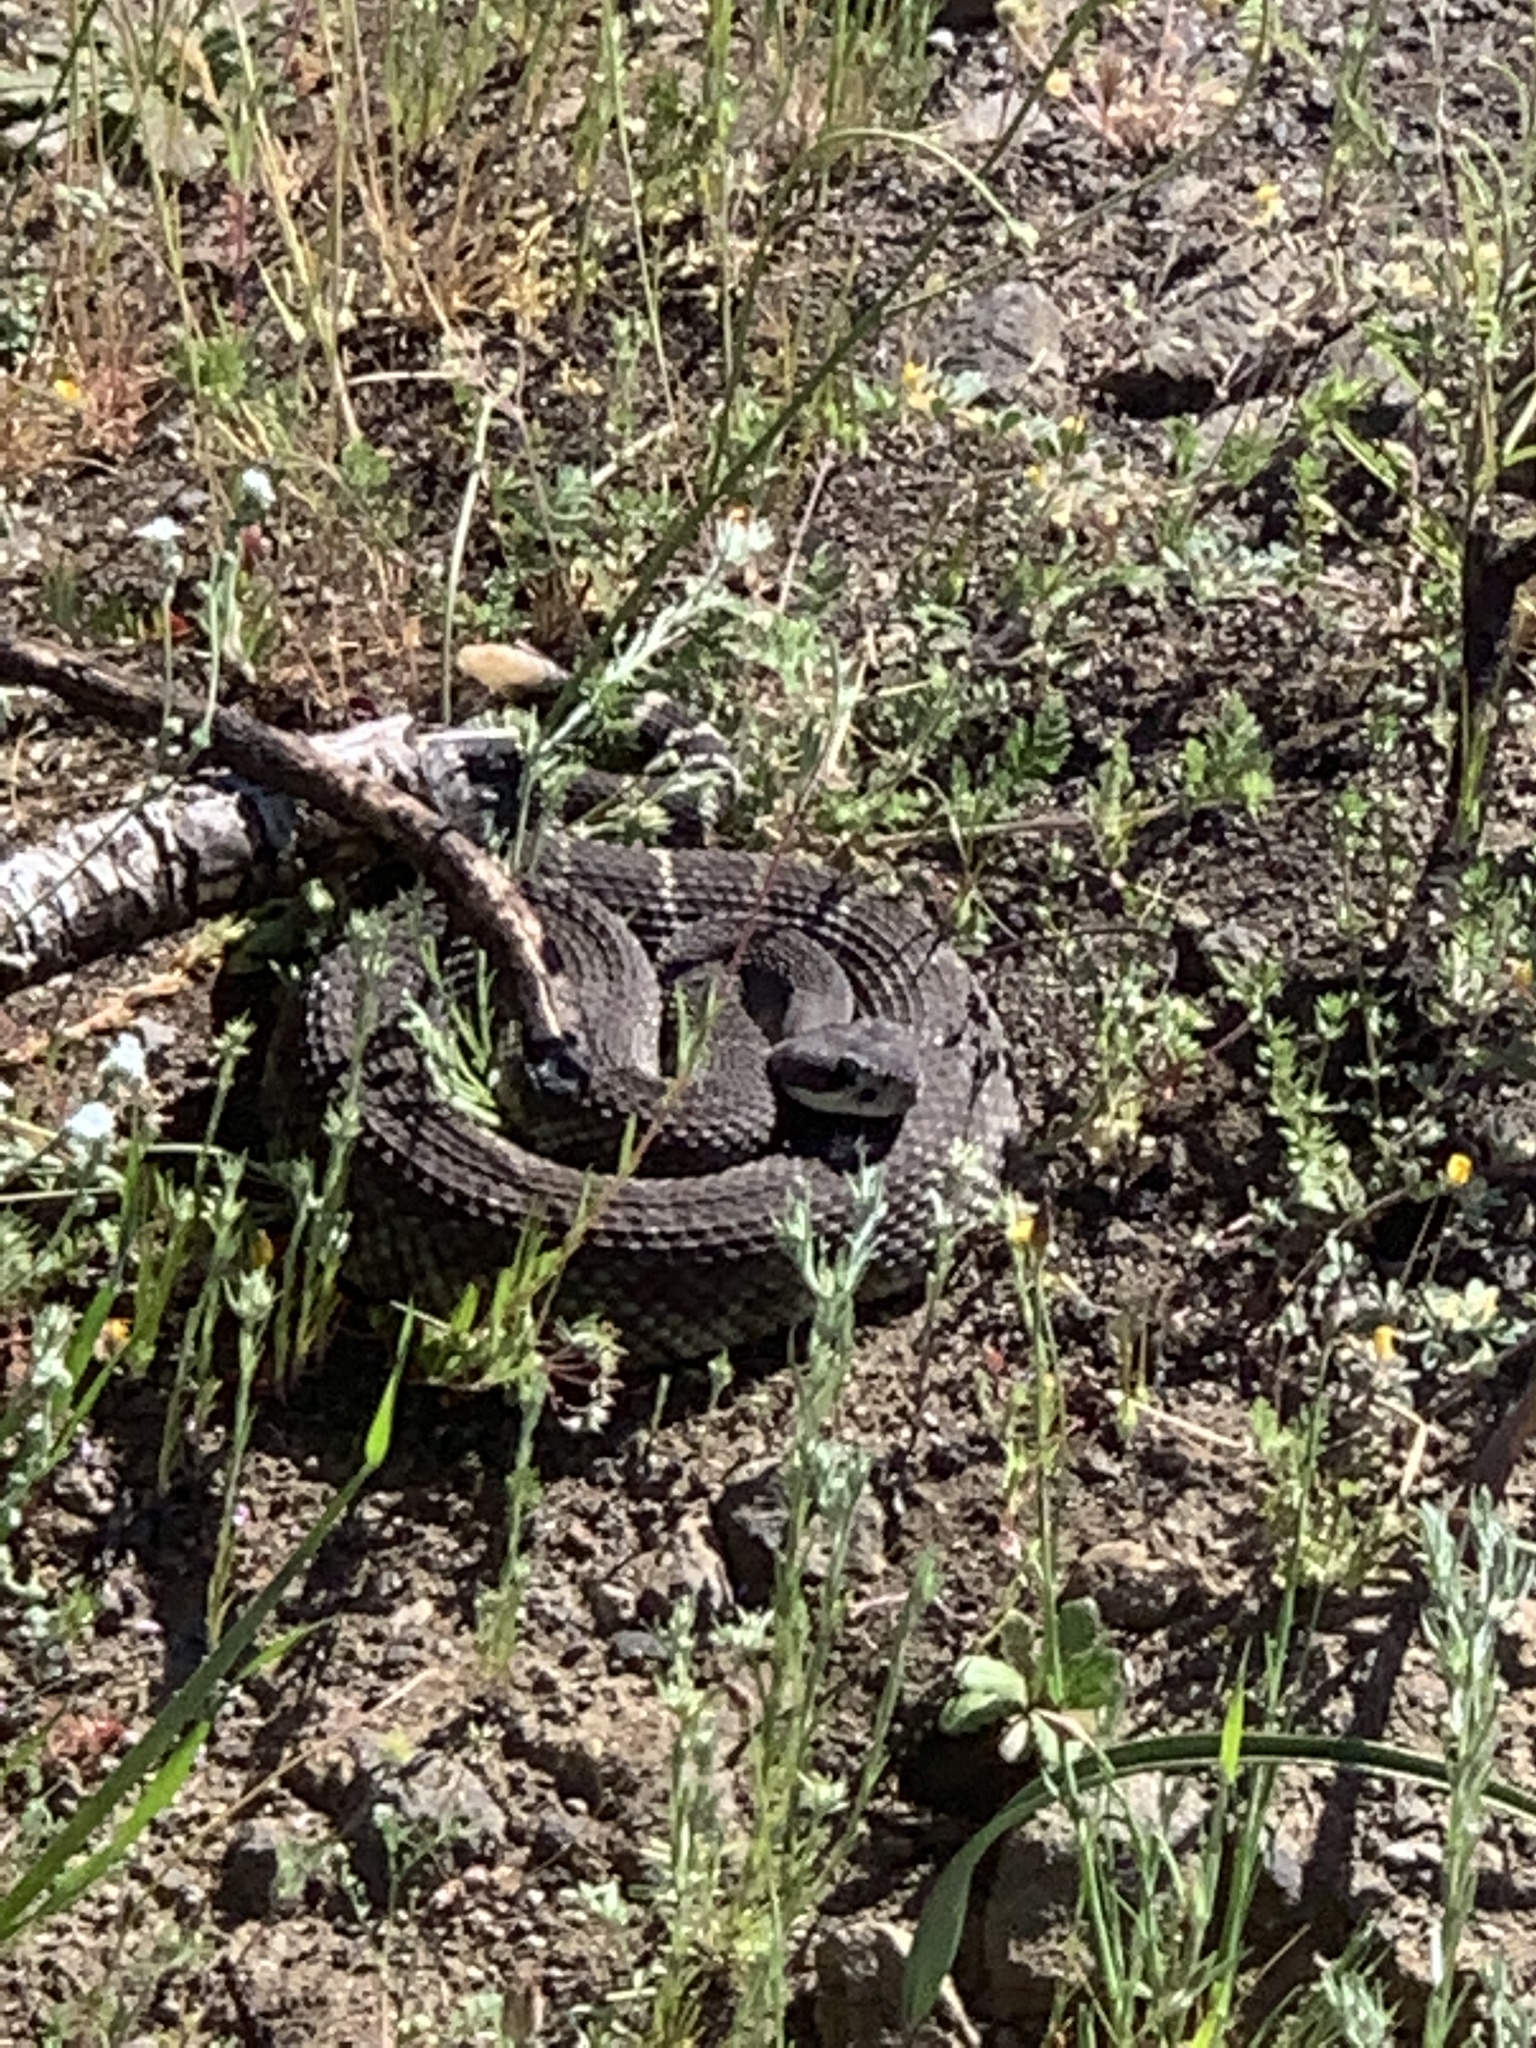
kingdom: Animalia
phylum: Chordata
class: Squamata
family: Viperidae
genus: Crotalus
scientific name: Crotalus oreganus
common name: Abyssus
